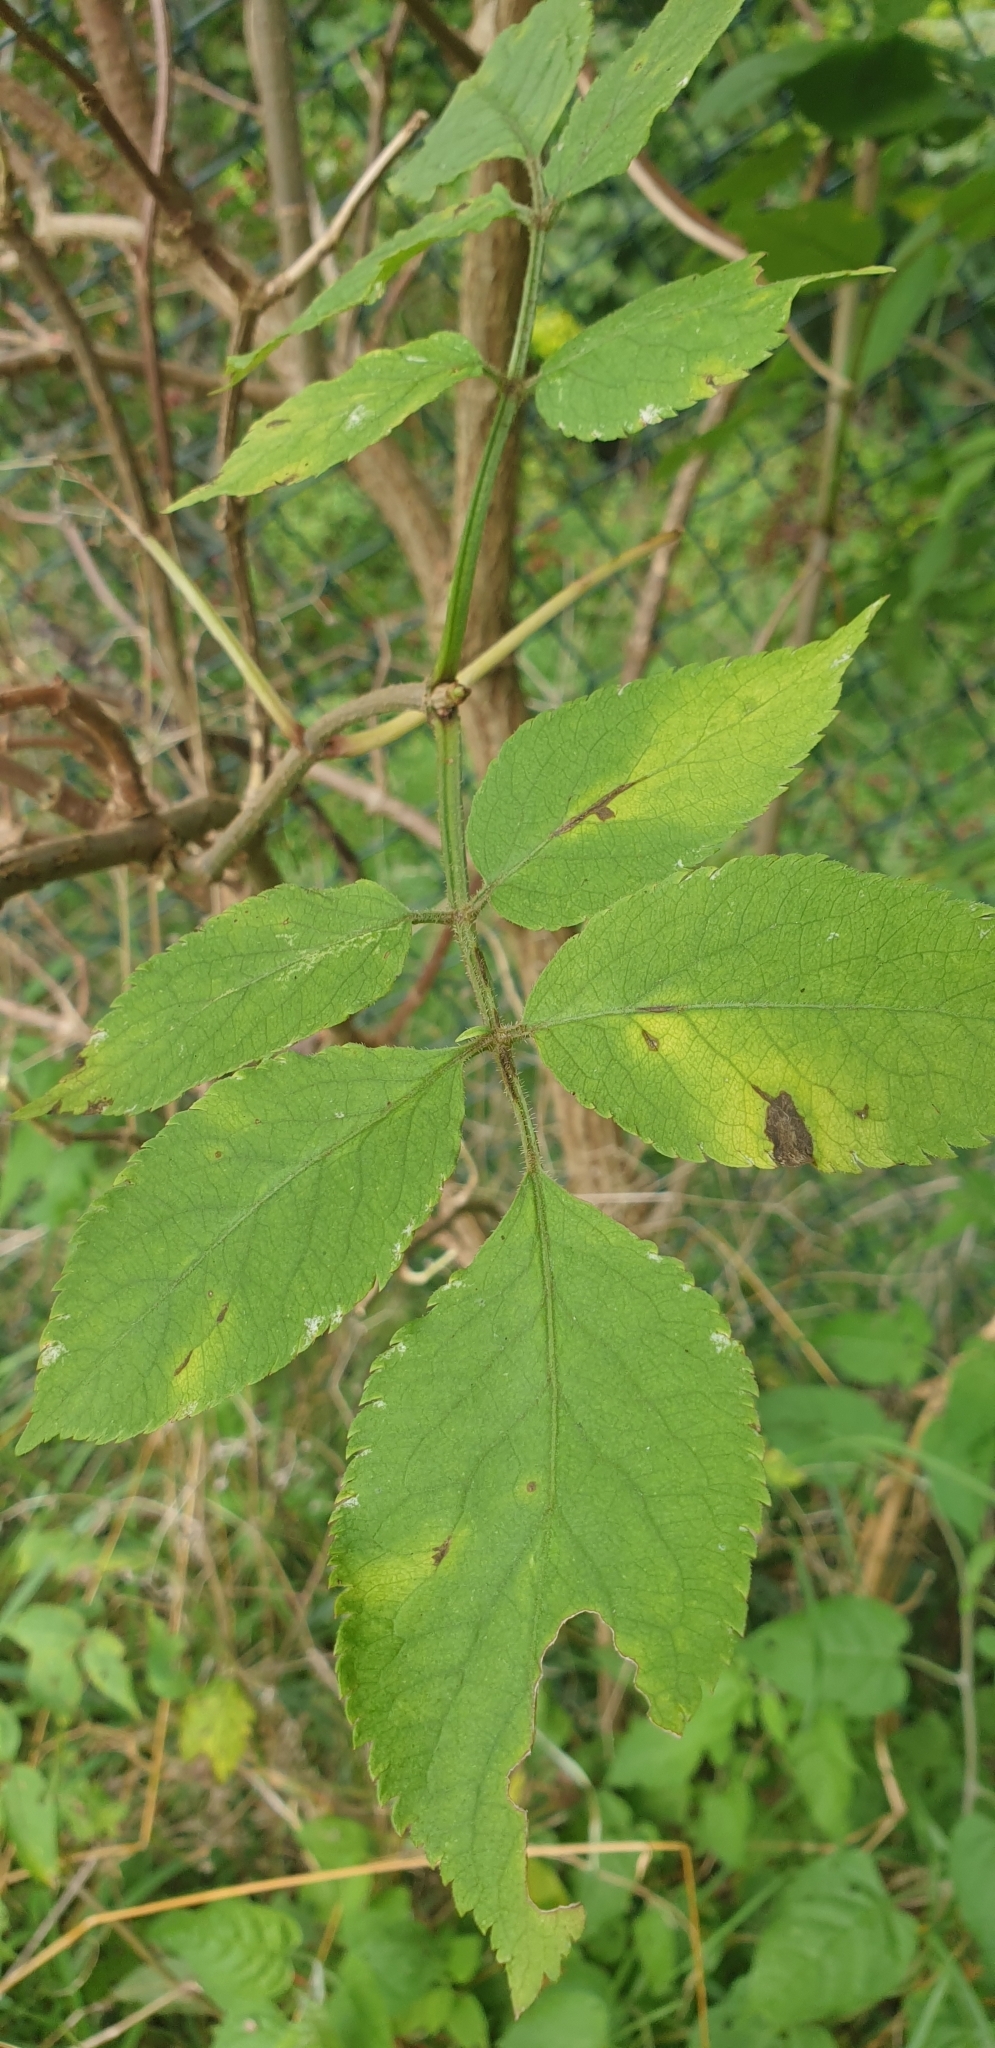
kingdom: Plantae
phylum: Tracheophyta
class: Magnoliopsida
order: Dipsacales
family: Viburnaceae
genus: Sambucus
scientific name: Sambucus nigra
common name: Elder
